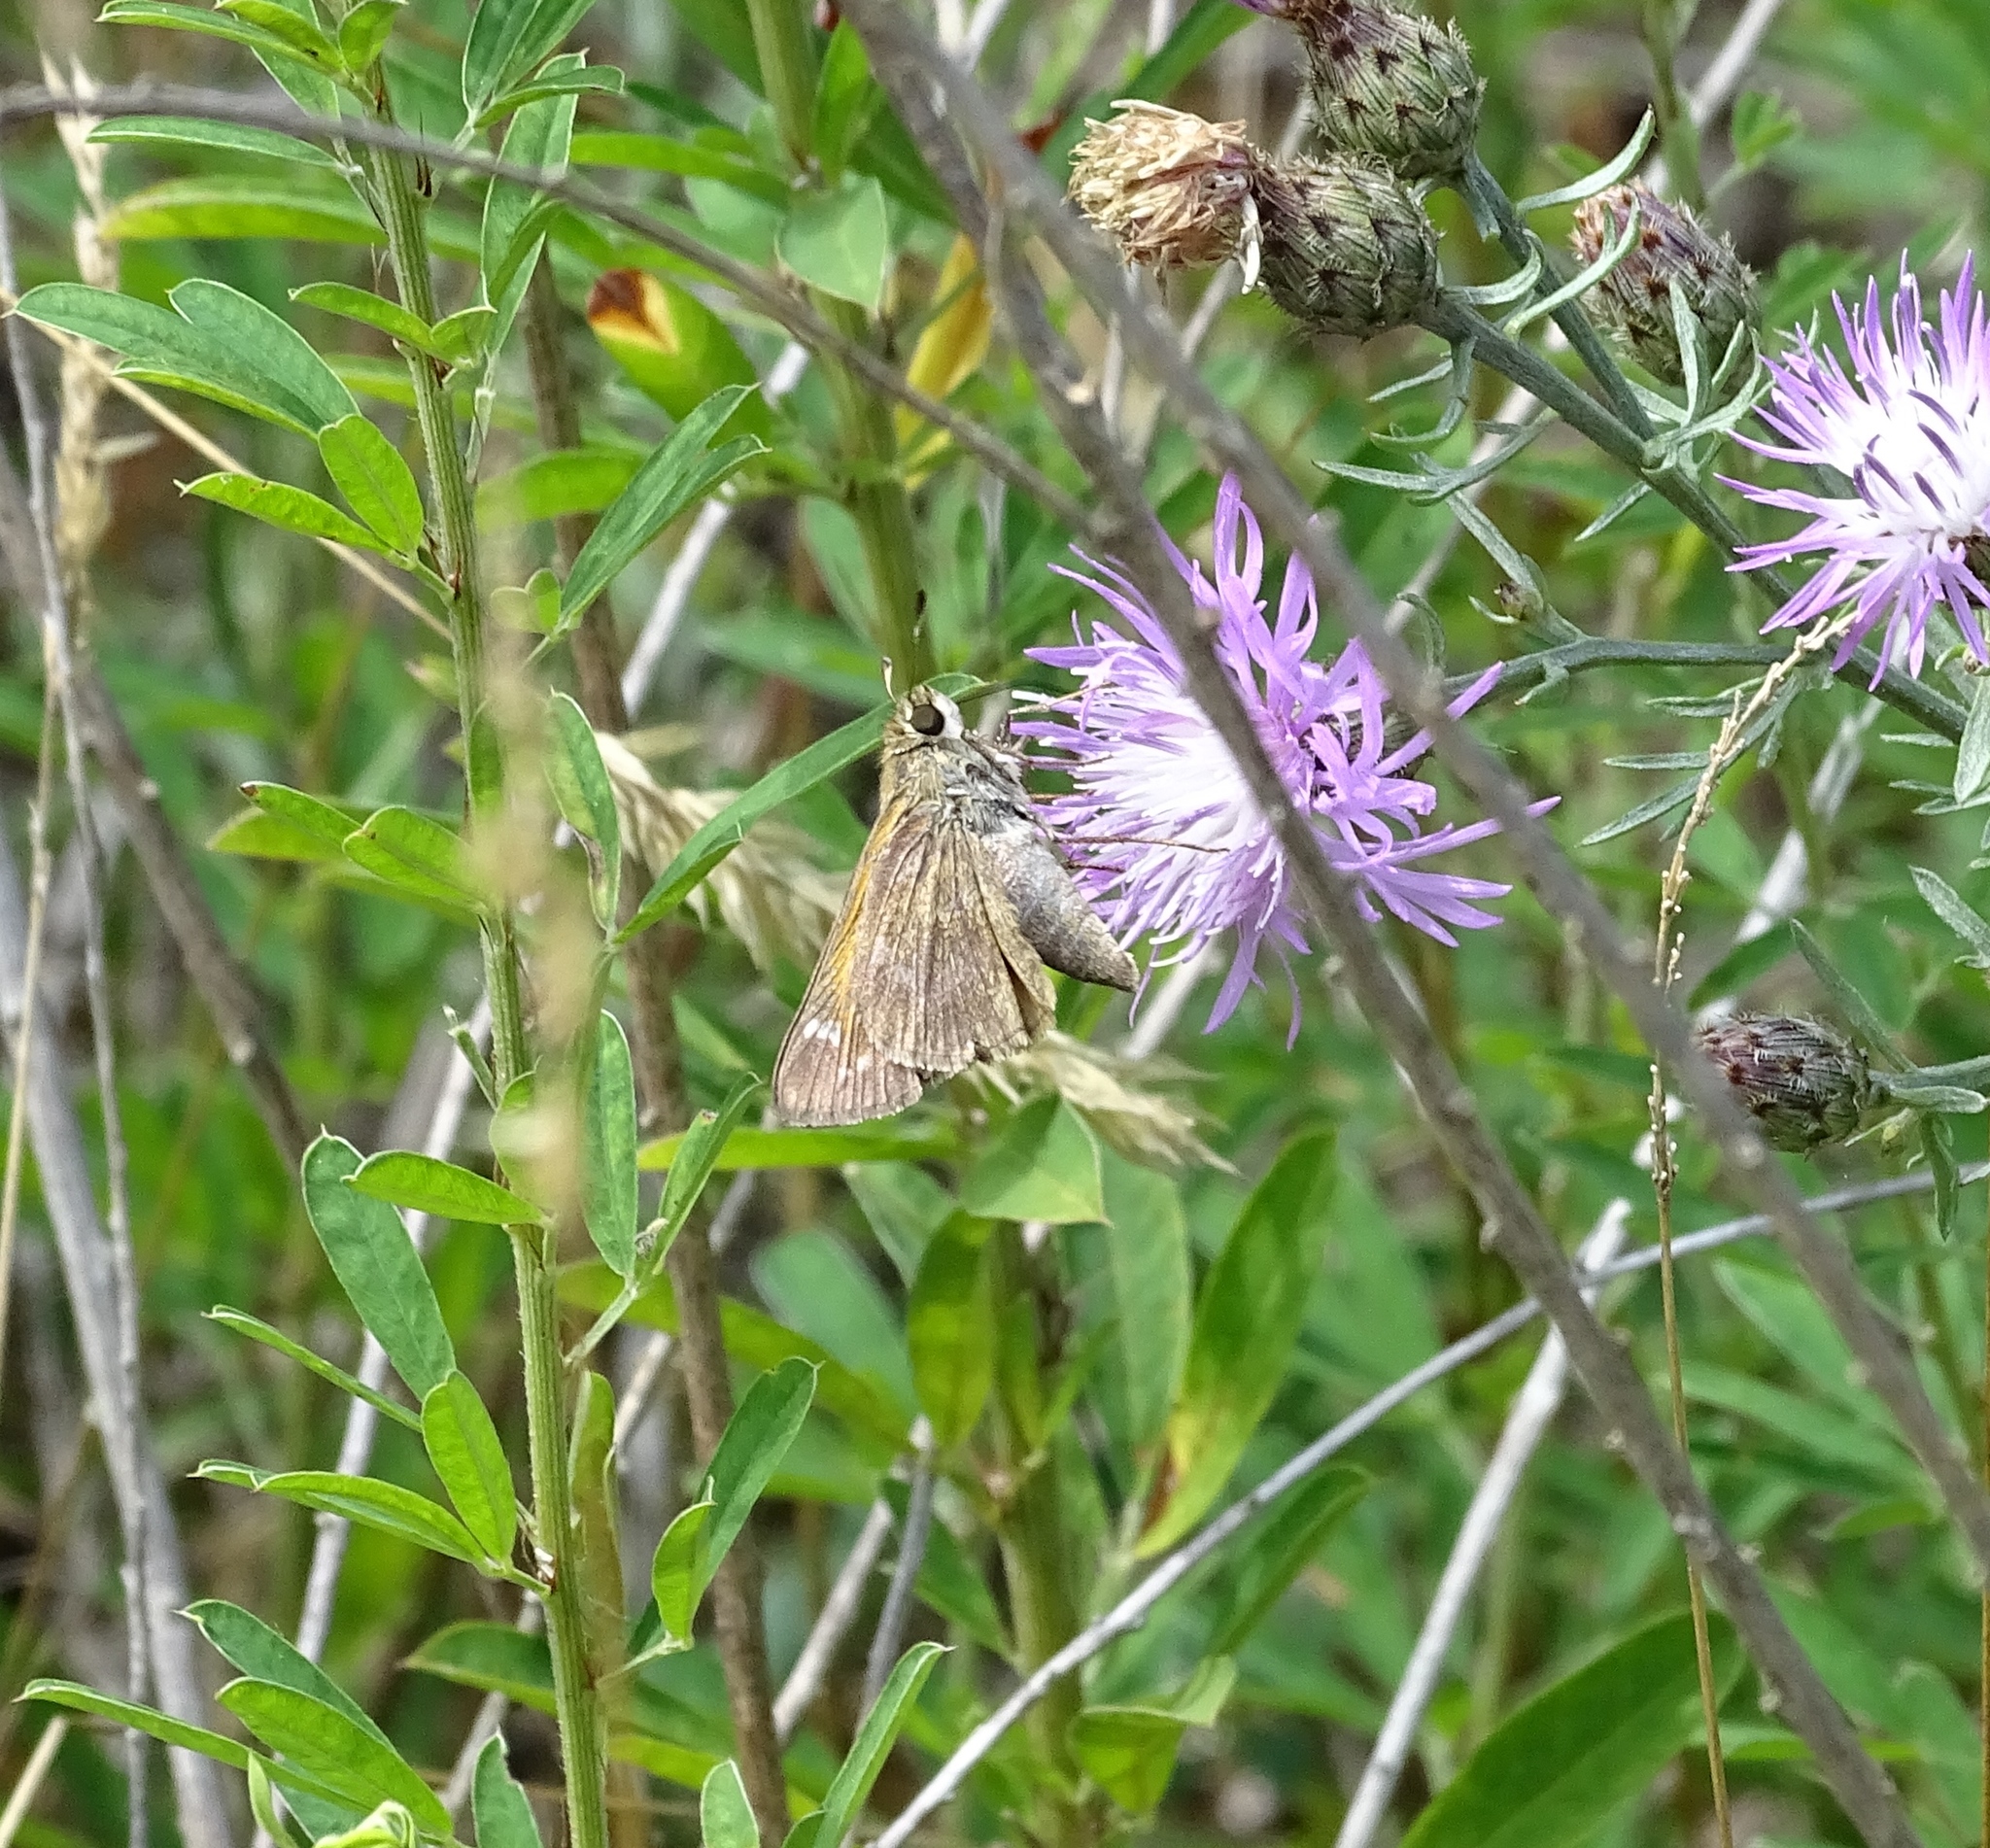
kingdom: Animalia
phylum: Arthropoda
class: Insecta
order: Lepidoptera
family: Hesperiidae
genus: Atalopedes
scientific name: Atalopedes
